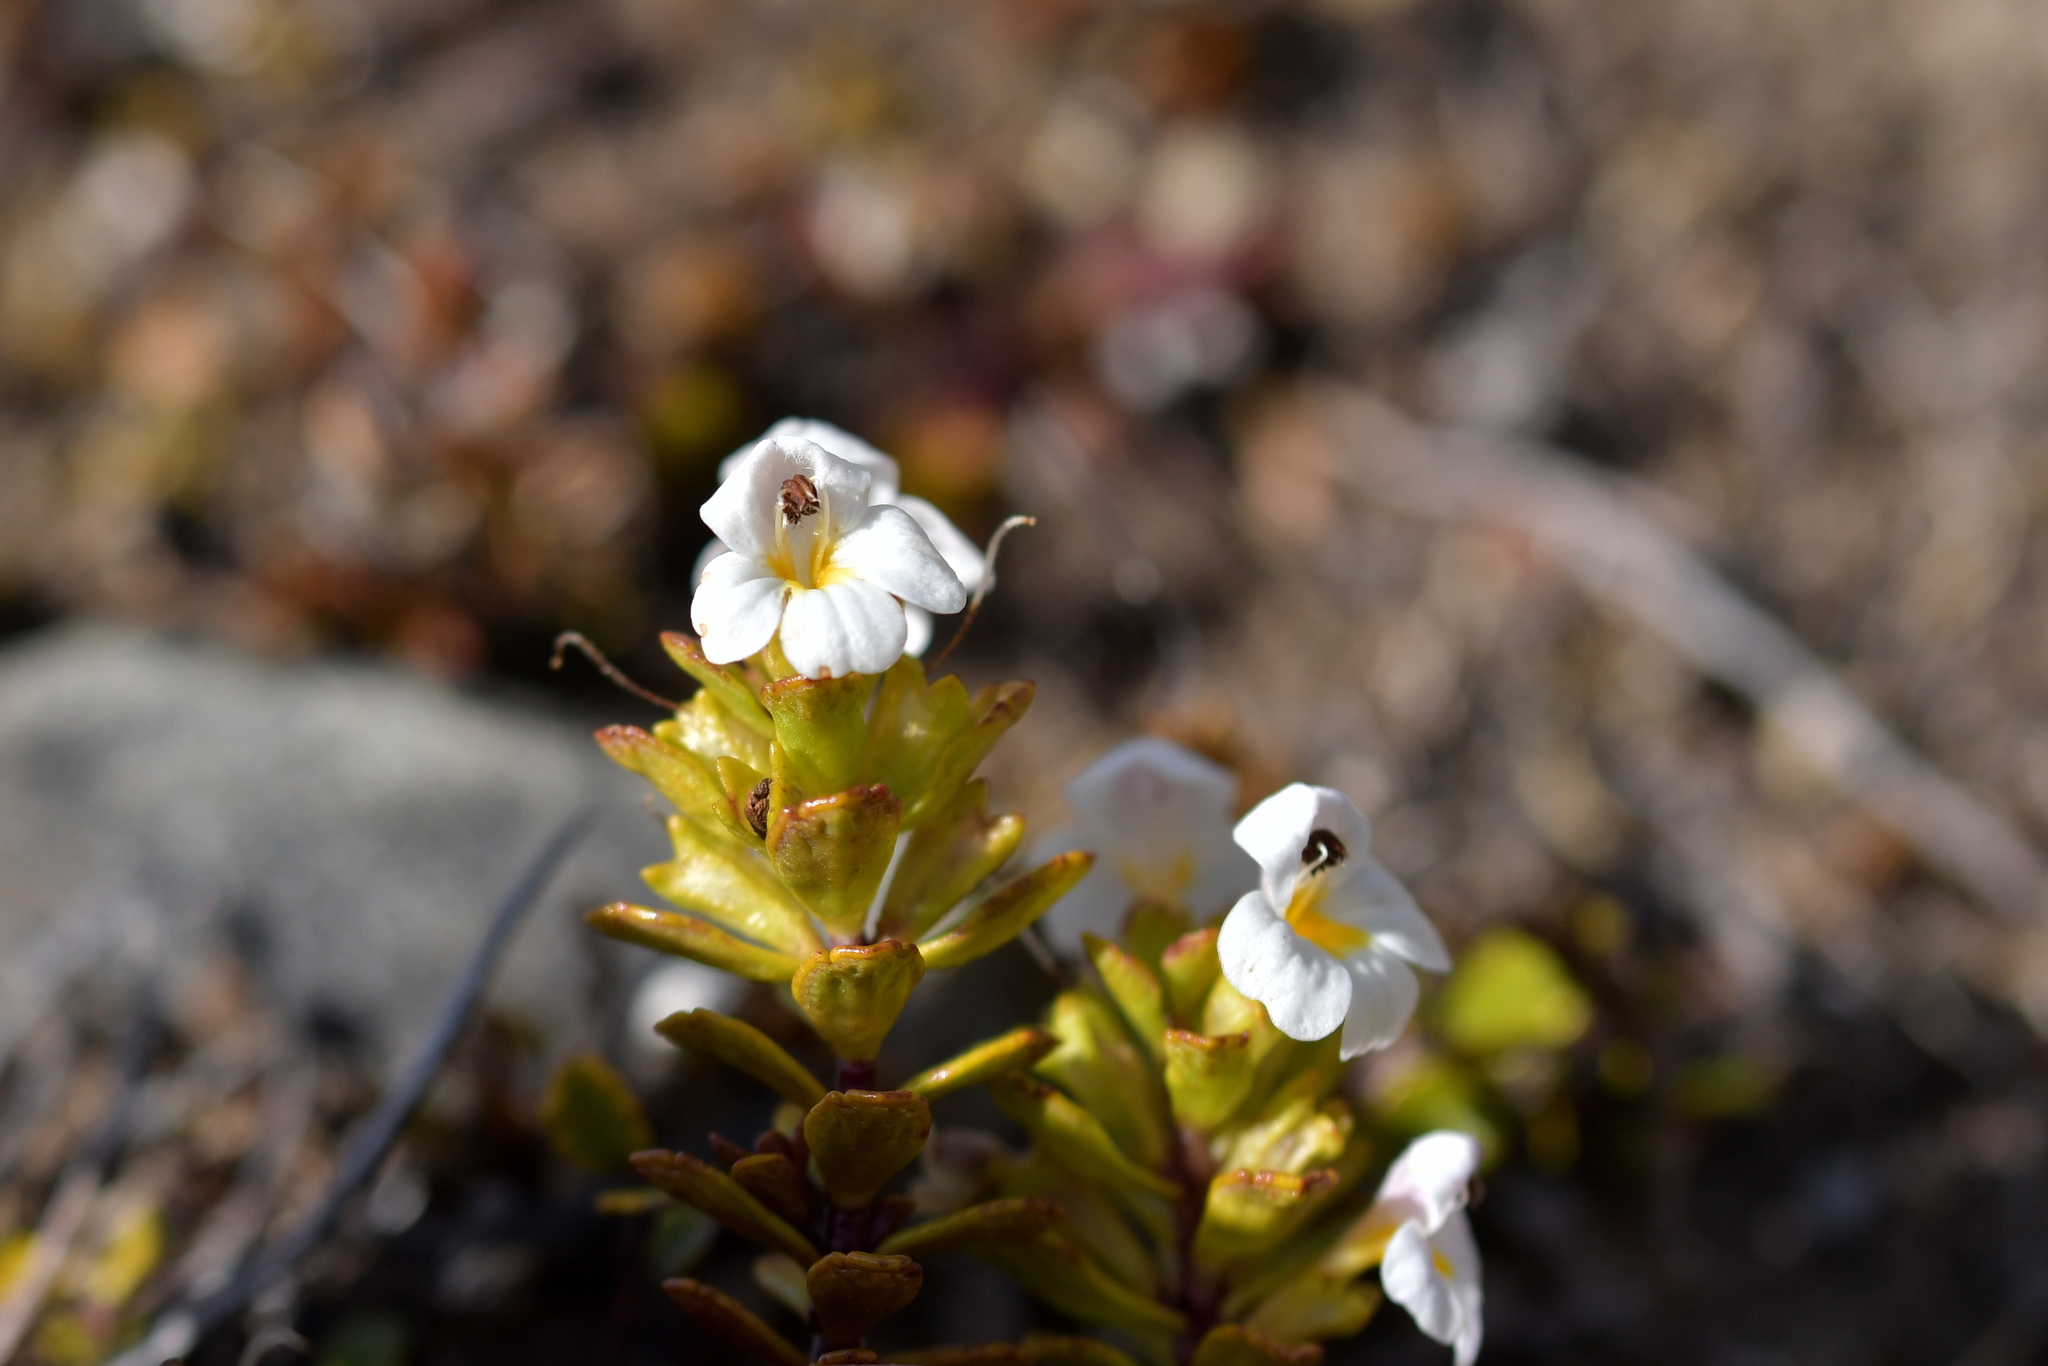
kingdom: Plantae
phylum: Tracheophyta
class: Magnoliopsida
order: Lamiales
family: Orobanchaceae
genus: Euphrasia
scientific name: Euphrasia monroi
